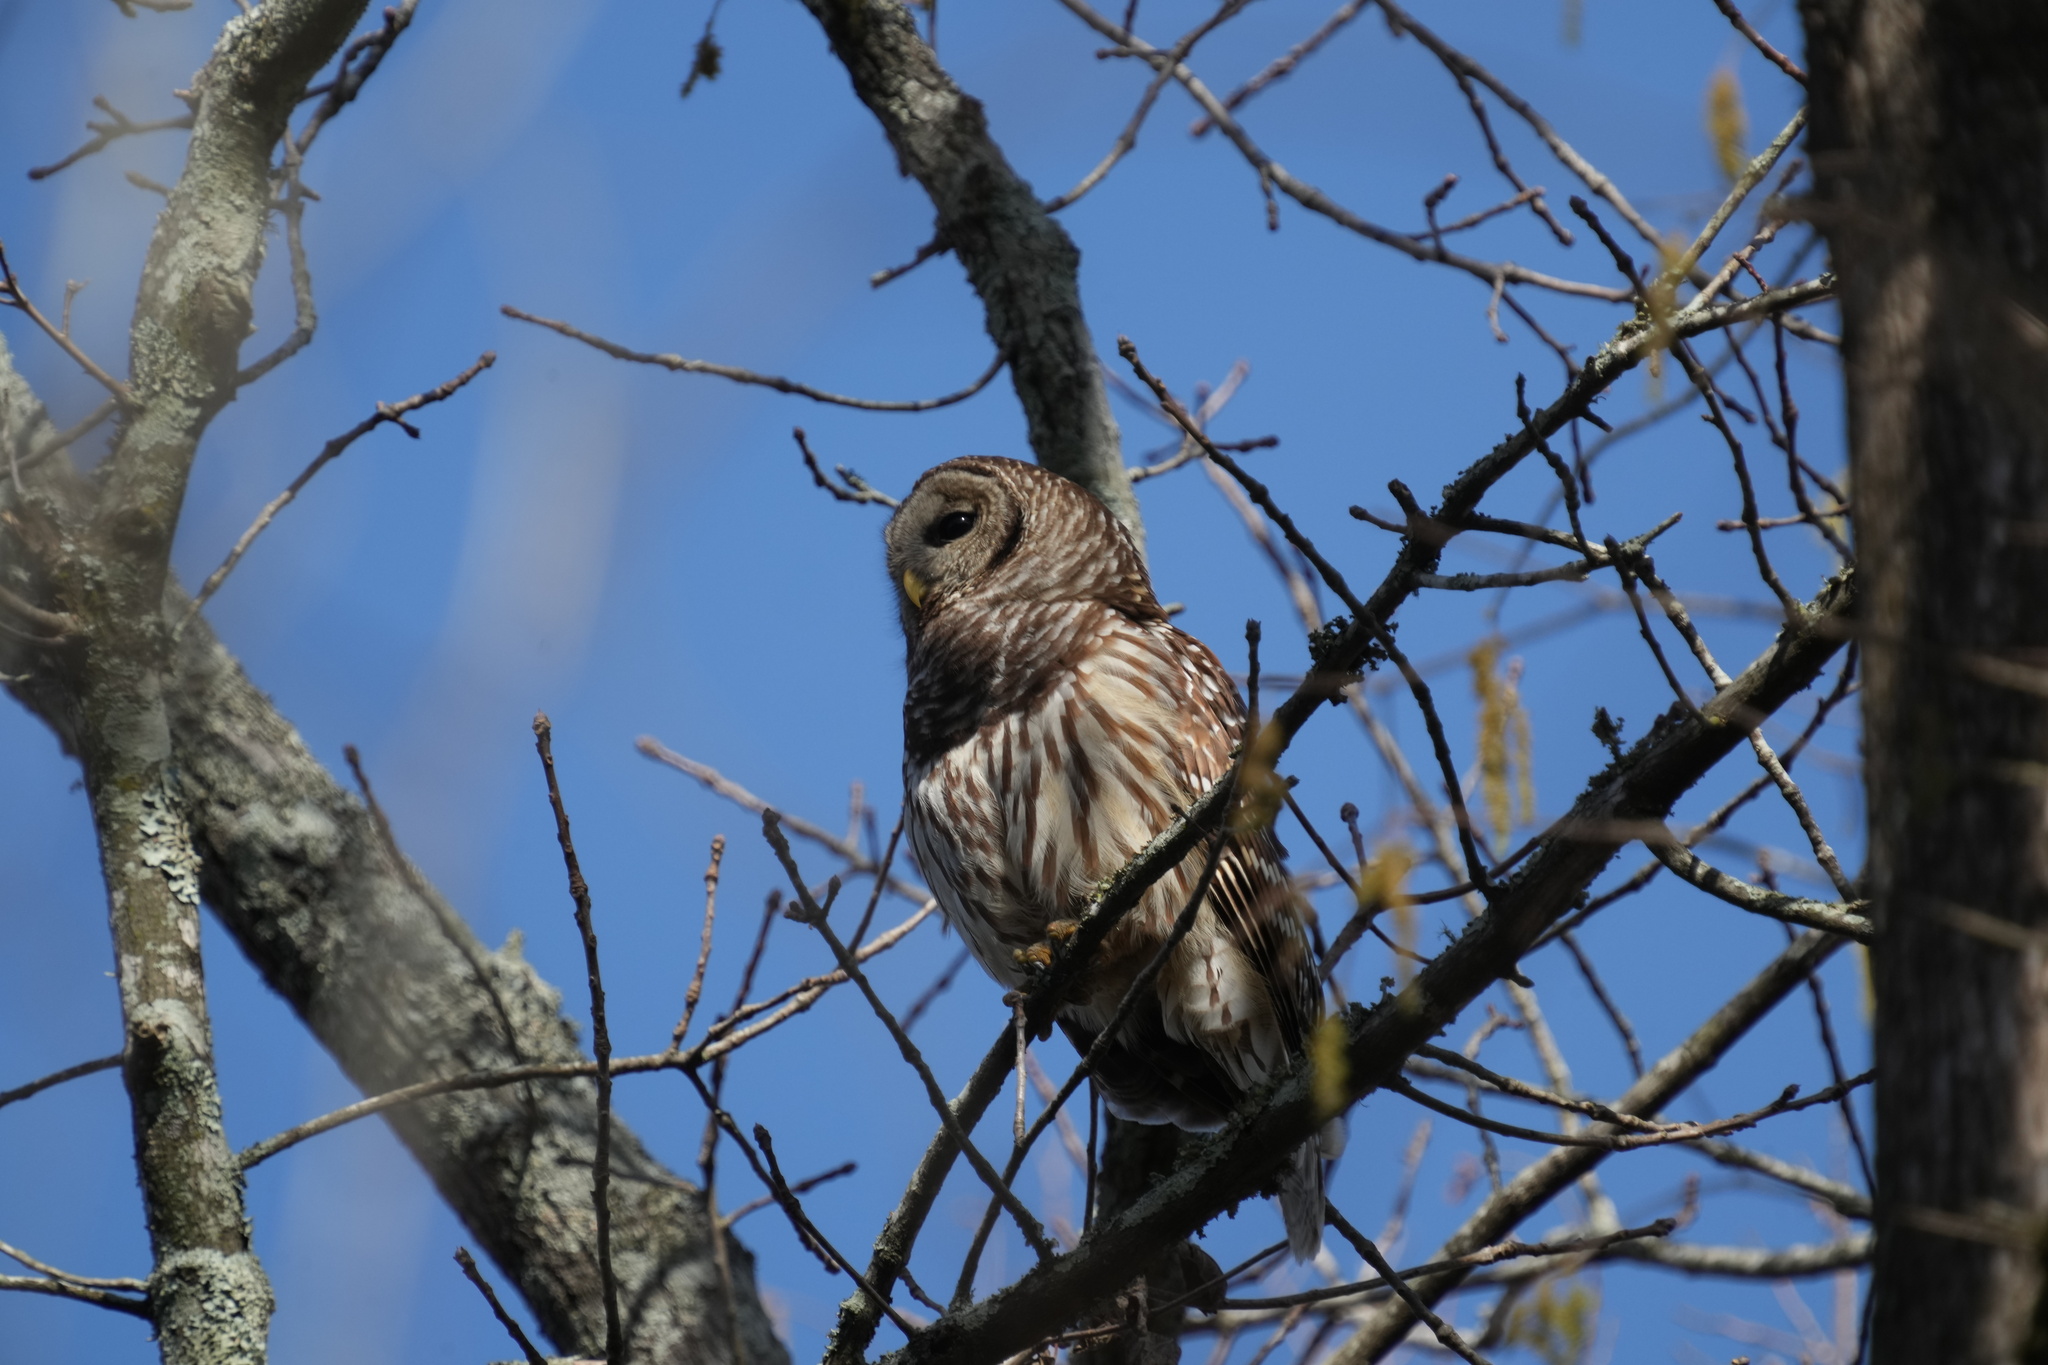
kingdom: Animalia
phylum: Chordata
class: Aves
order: Strigiformes
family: Strigidae
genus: Strix
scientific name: Strix varia
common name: Barred owl
